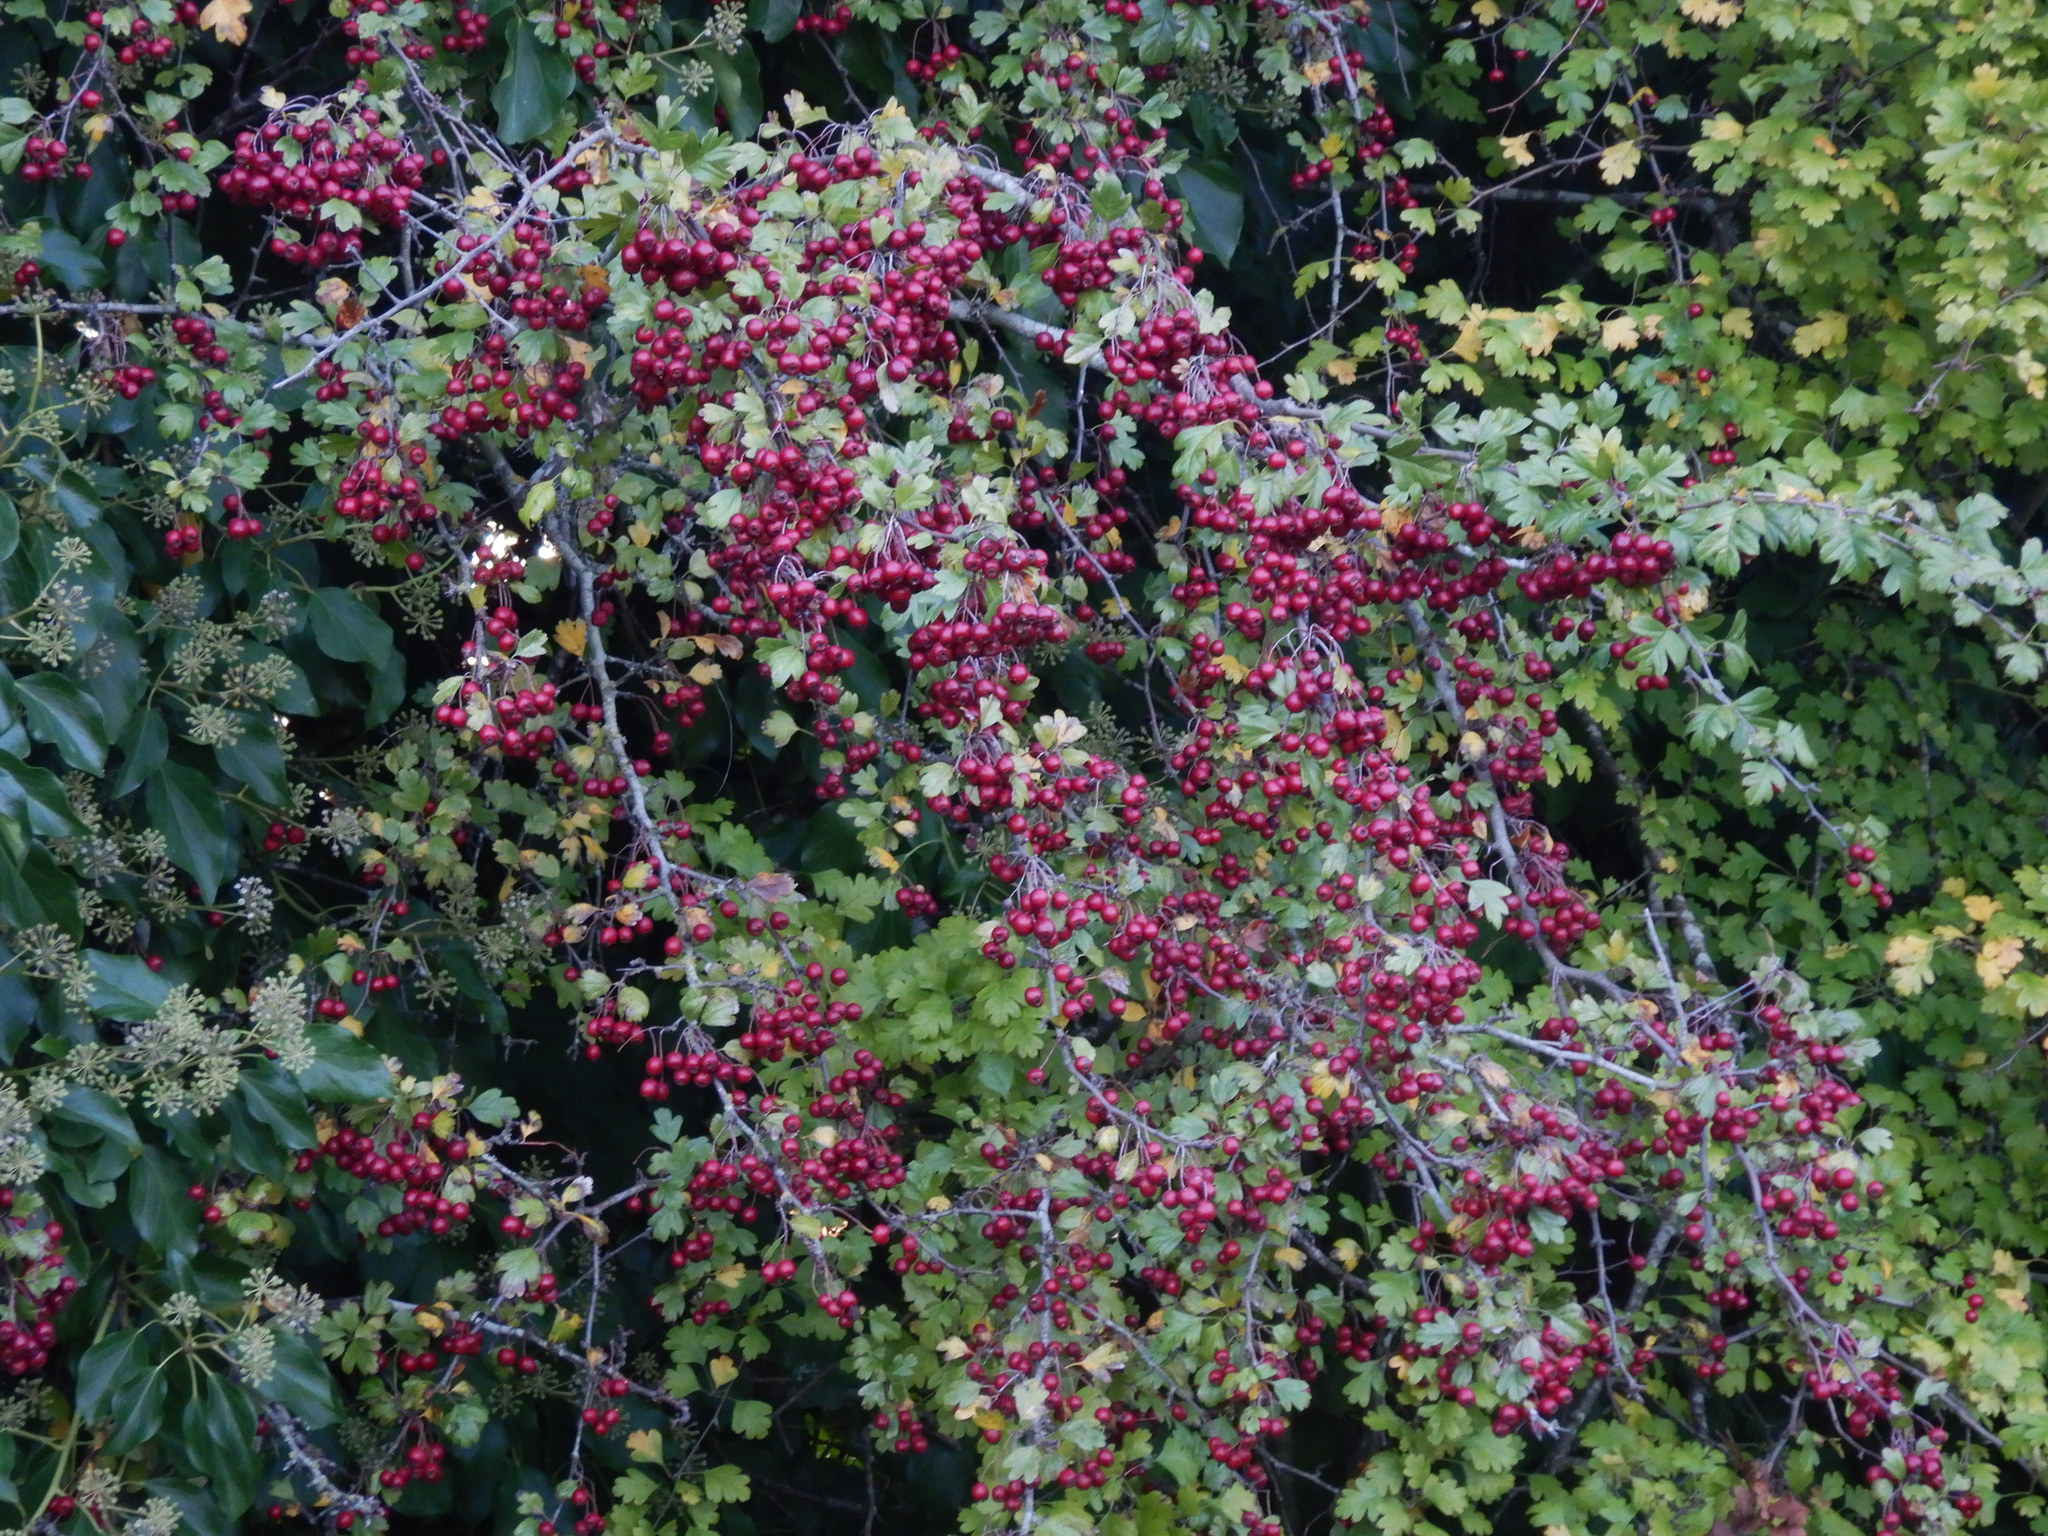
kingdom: Plantae
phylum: Tracheophyta
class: Magnoliopsida
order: Rosales
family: Rosaceae
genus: Crataegus
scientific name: Crataegus monogyna
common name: Hawthorn
